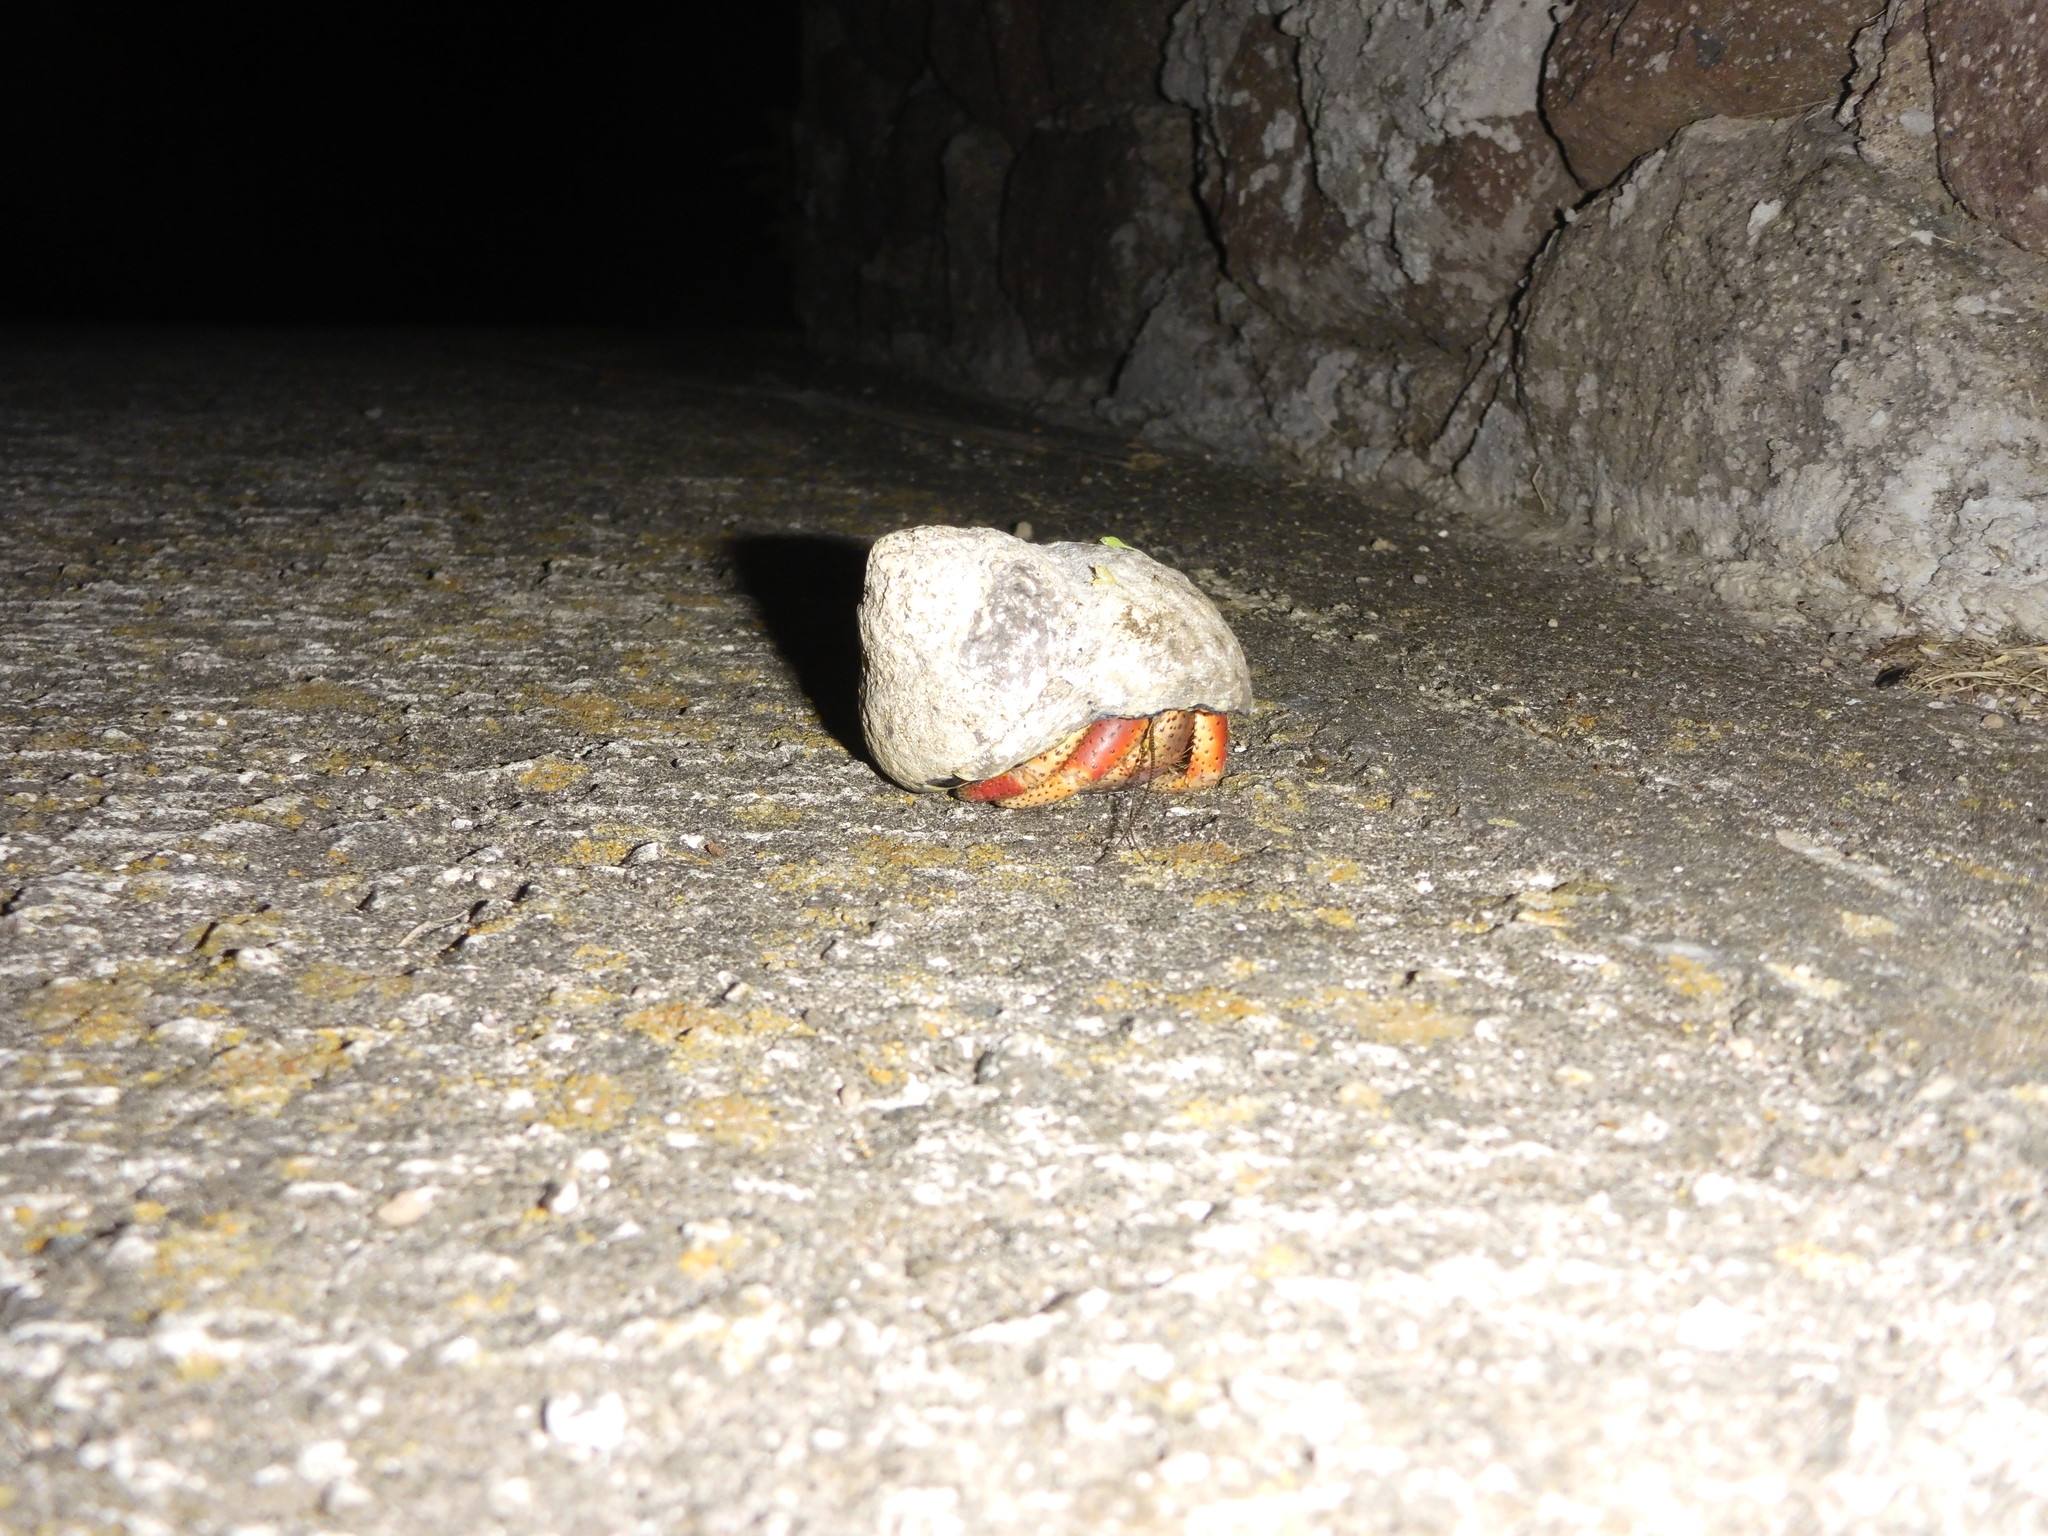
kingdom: Animalia
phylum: Arthropoda
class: Malacostraca
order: Decapoda
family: Coenobitidae
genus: Coenobita
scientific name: Coenobita clypeatus
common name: Caribbean hermit crab
